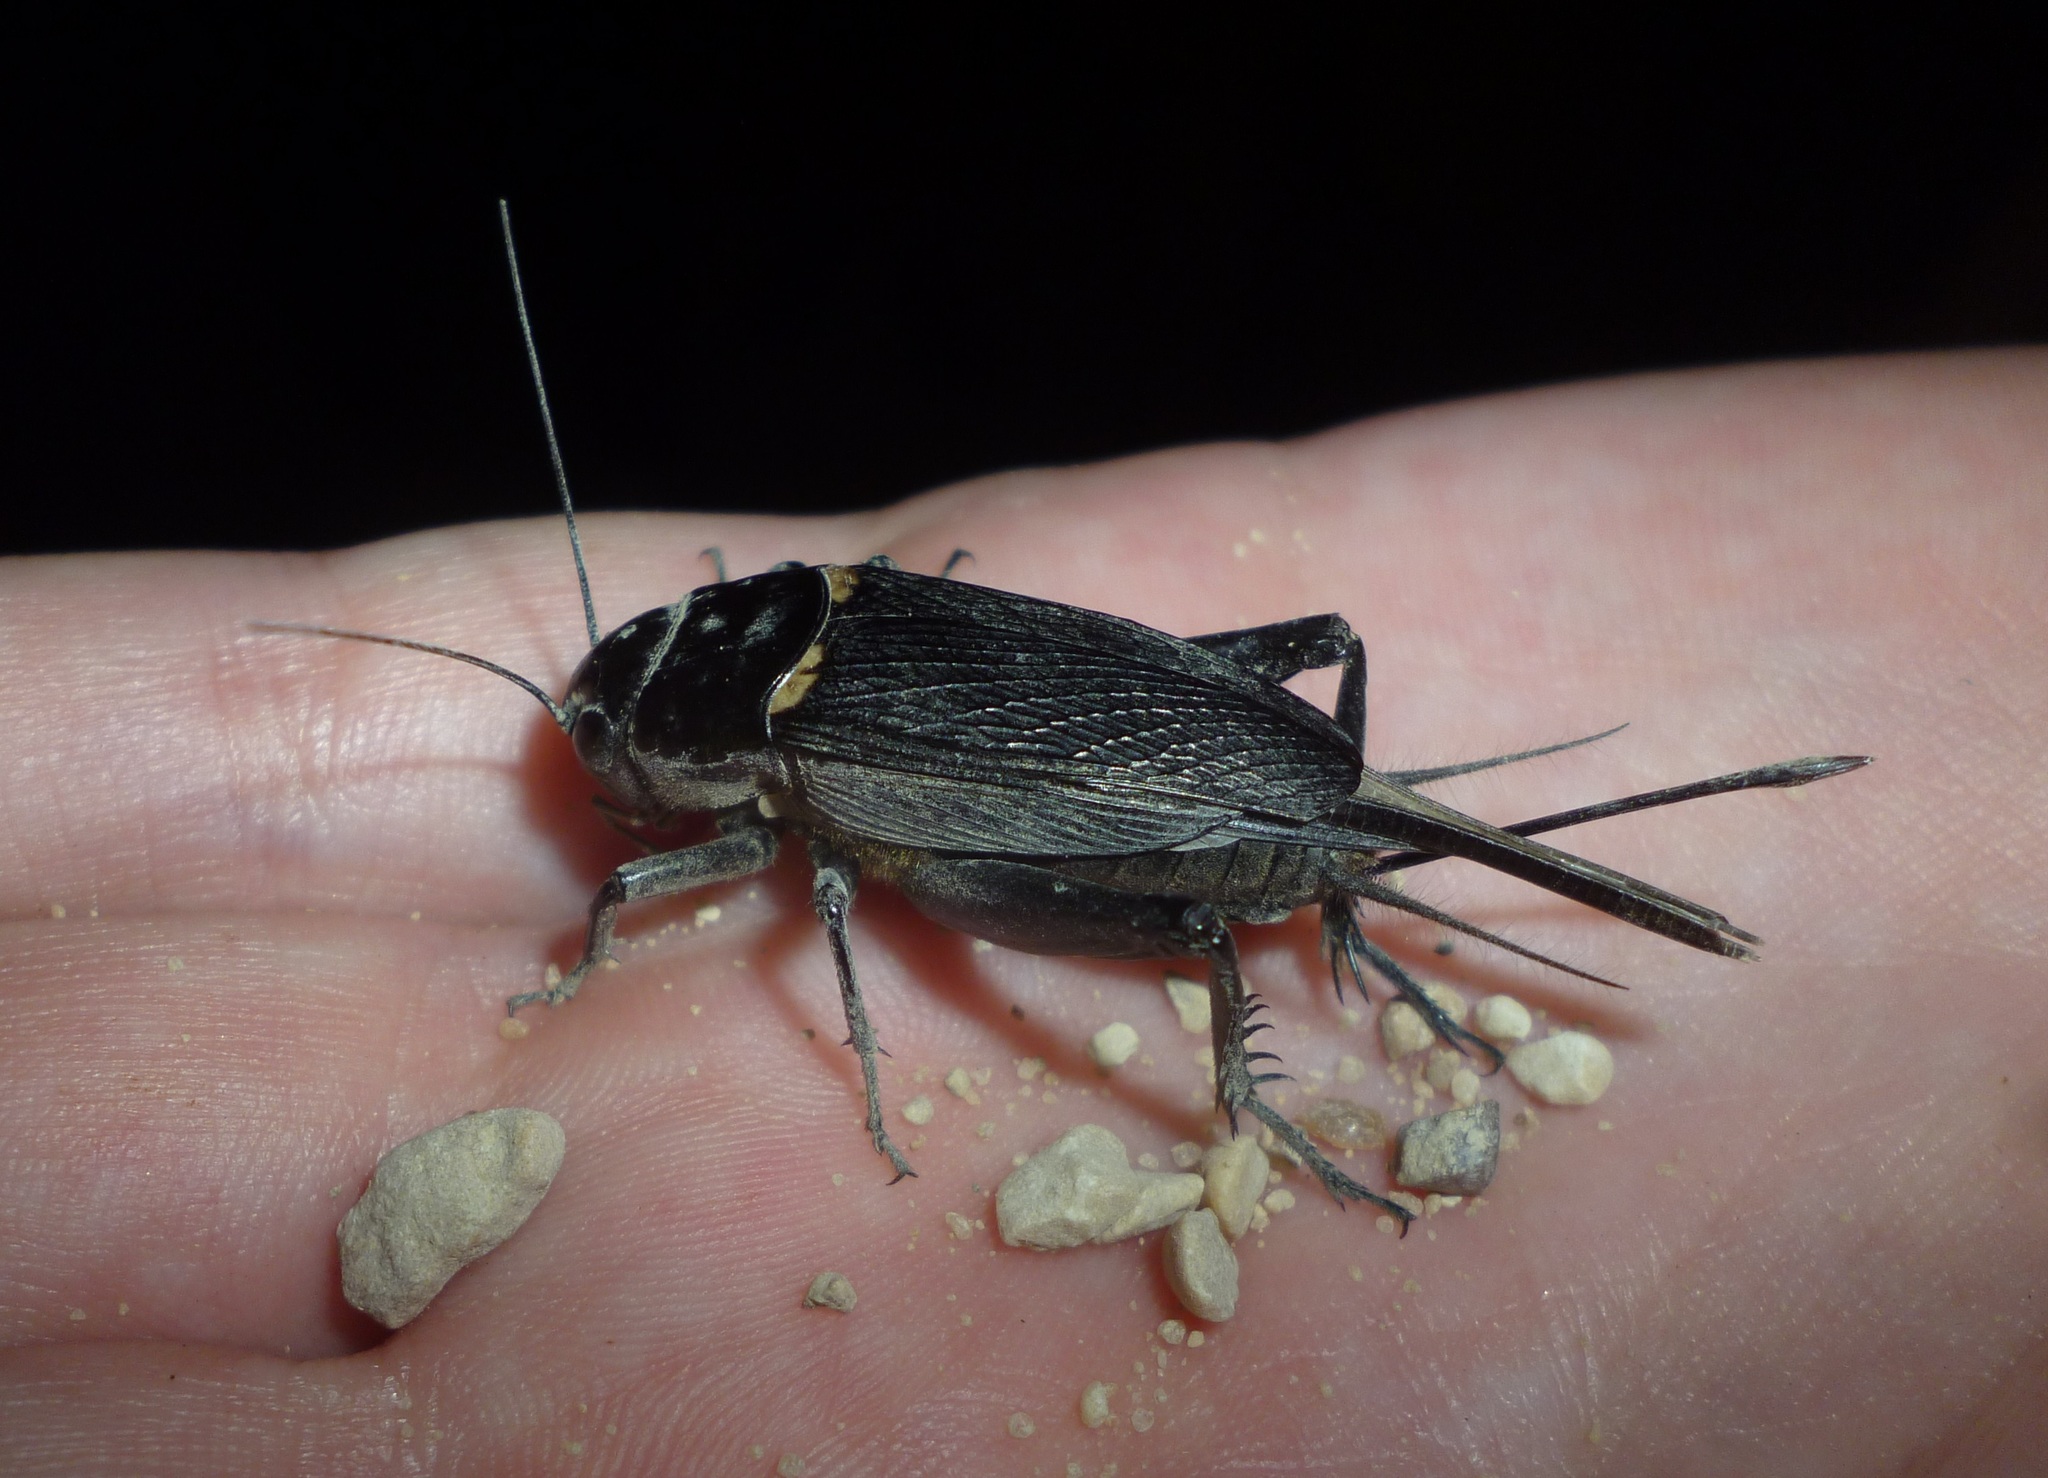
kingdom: Animalia
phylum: Arthropoda
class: Insecta
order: Orthoptera
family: Gryllidae
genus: Gryllus
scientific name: Gryllus bimaculatus
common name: Two-spotted cricket
